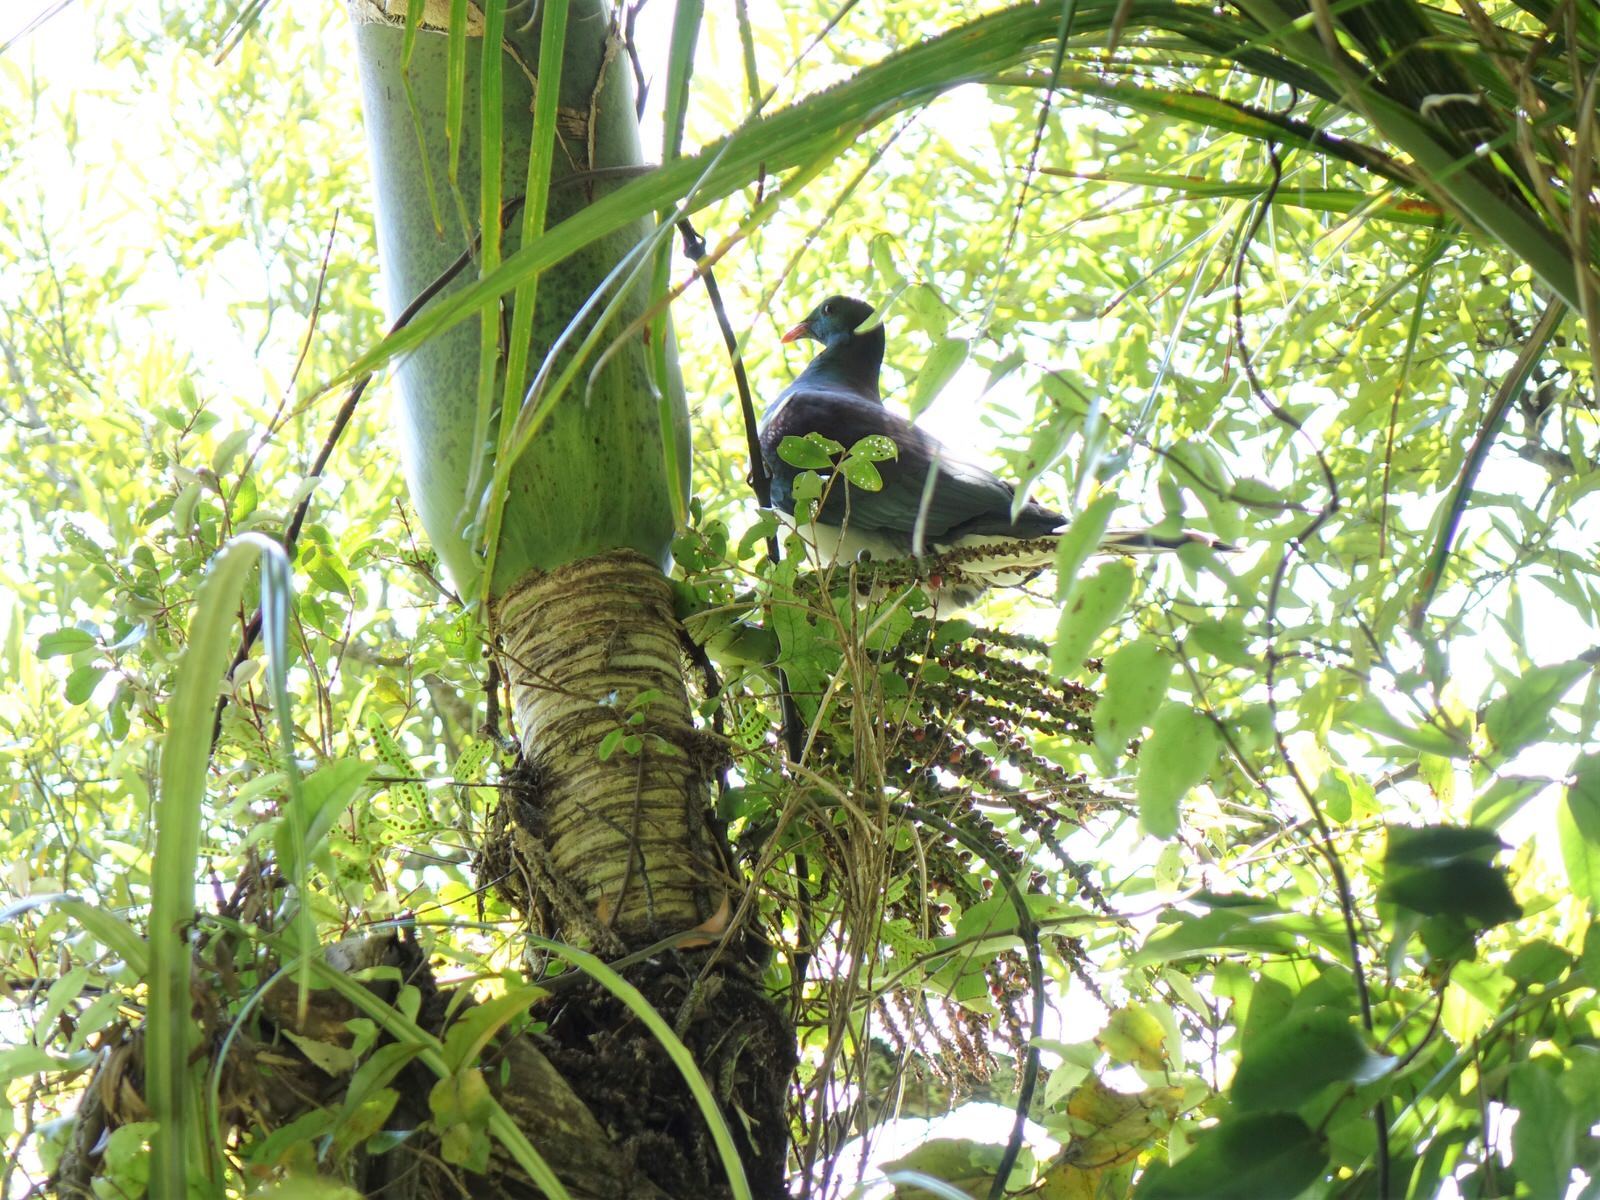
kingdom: Animalia
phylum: Chordata
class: Aves
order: Columbiformes
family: Columbidae
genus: Hemiphaga
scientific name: Hemiphaga novaeseelandiae
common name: New zealand pigeon
